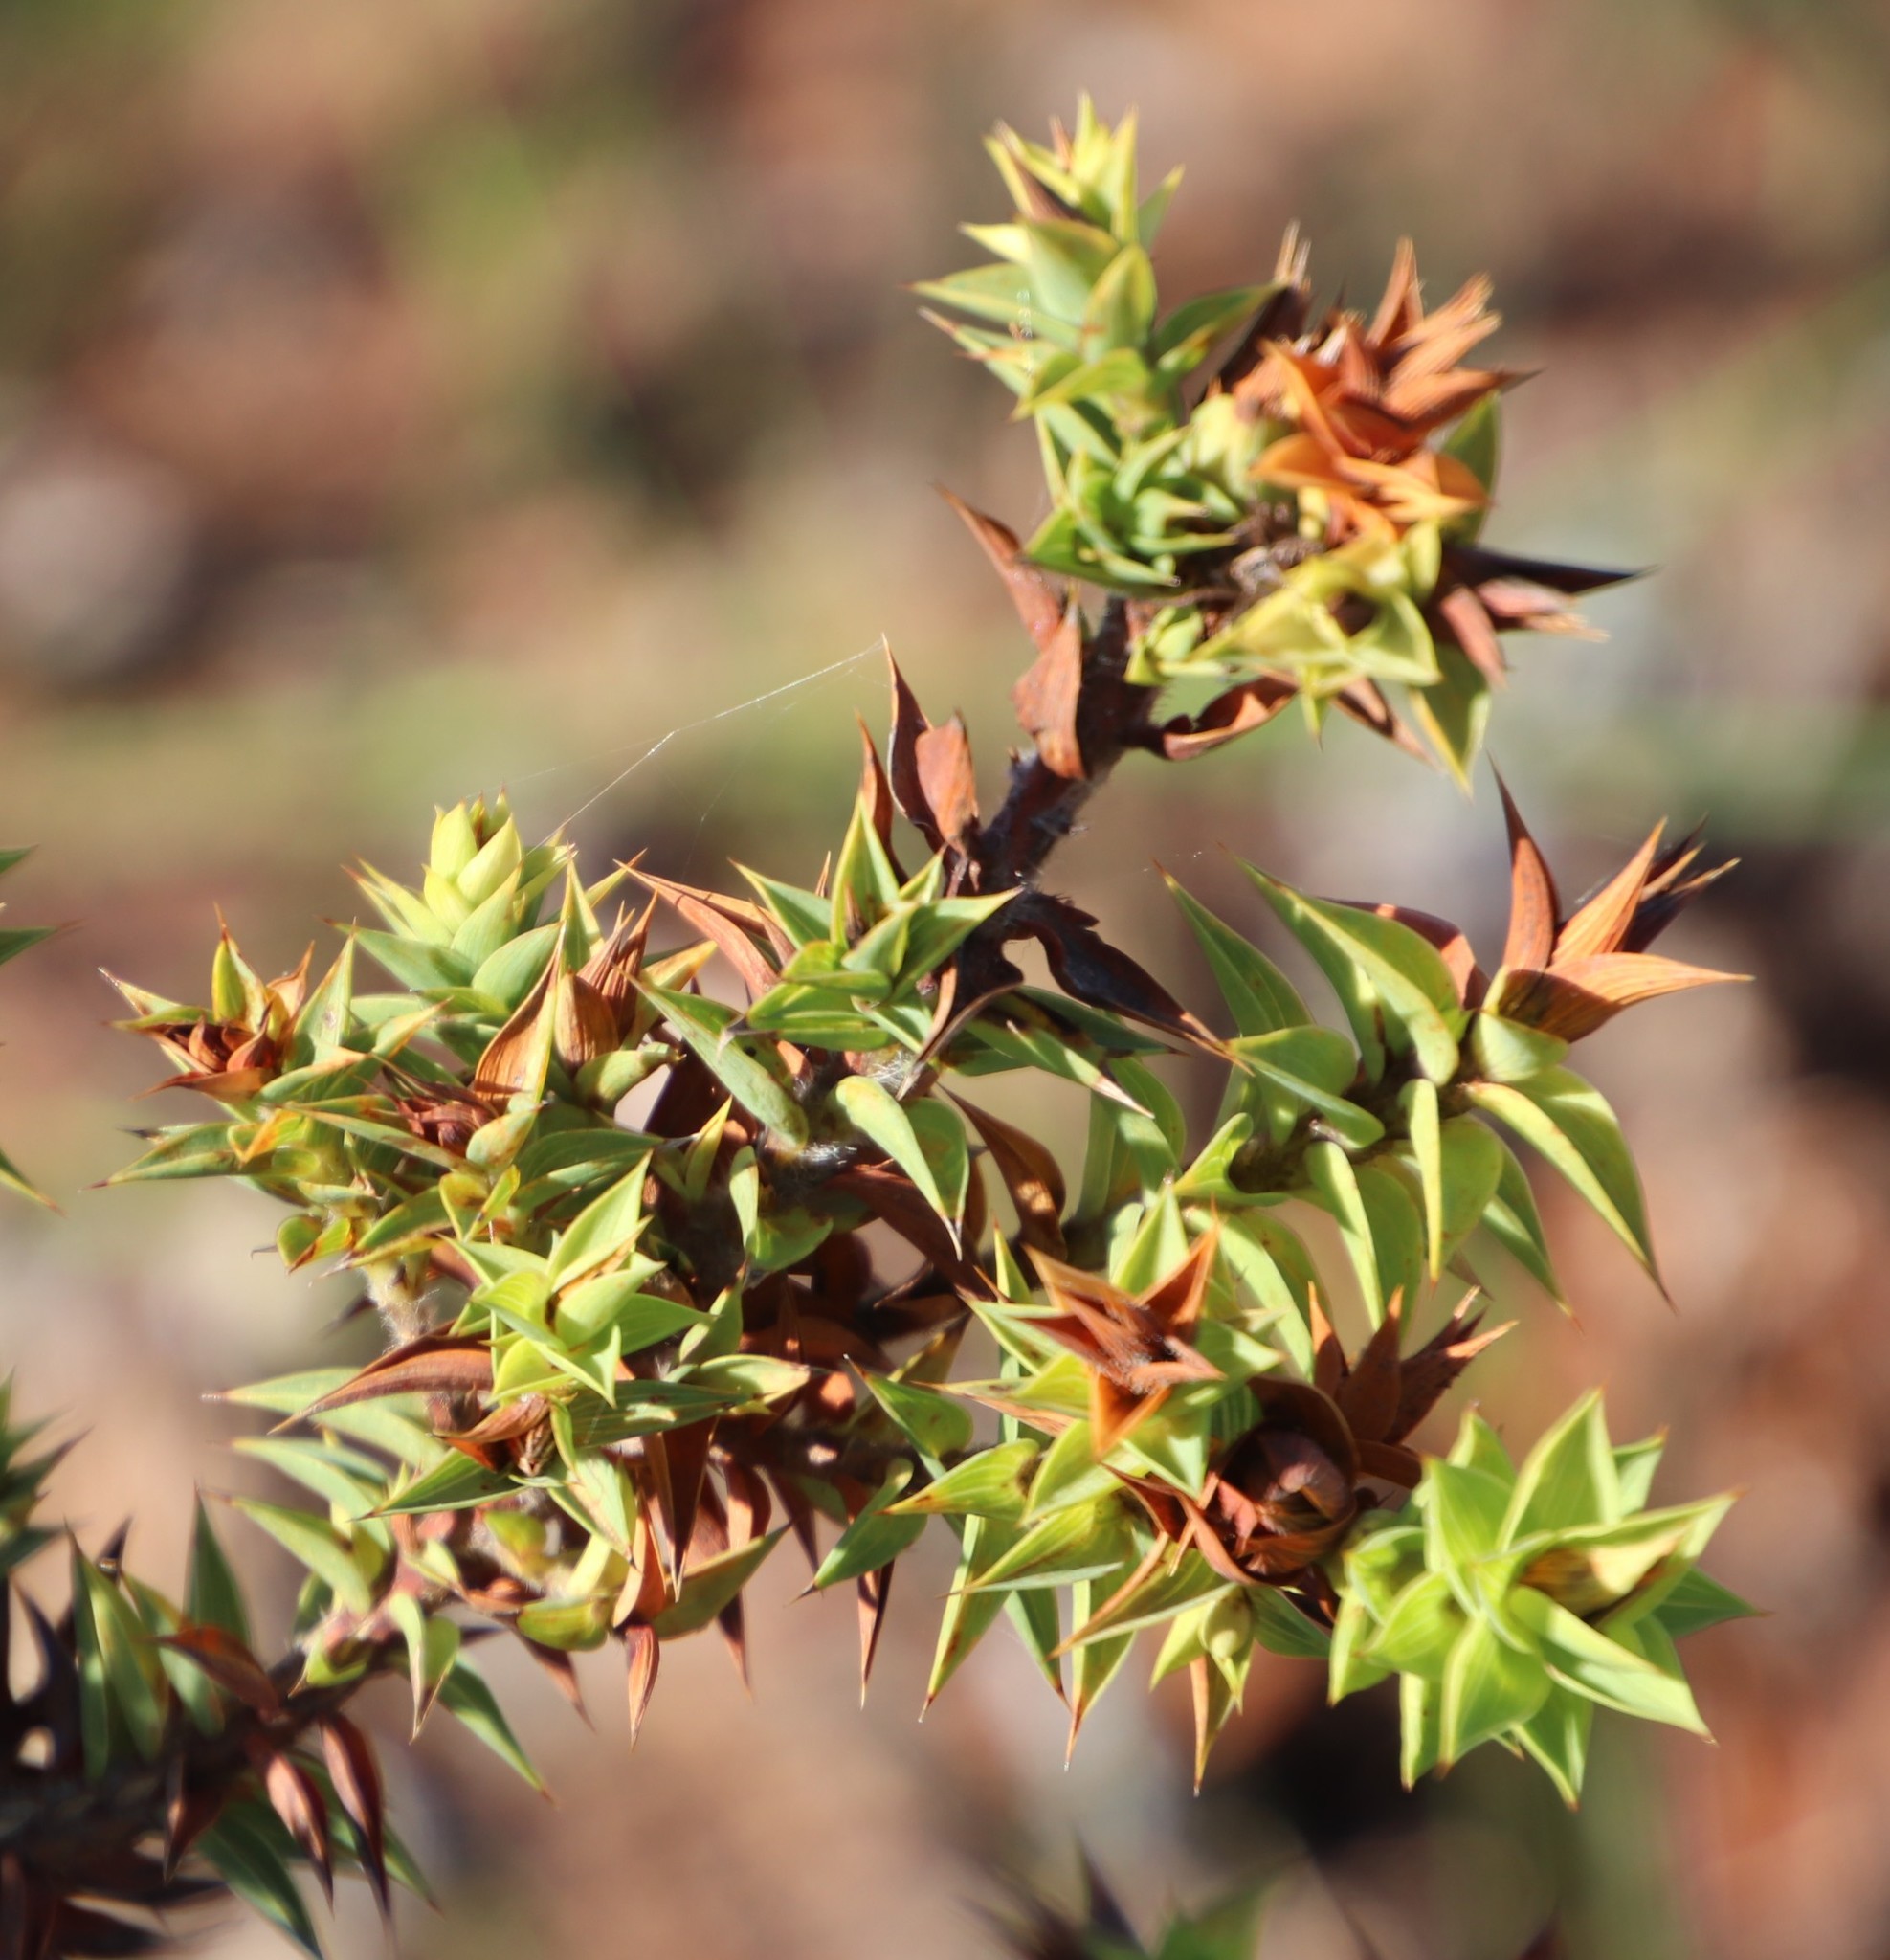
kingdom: Plantae
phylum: Tracheophyta
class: Magnoliopsida
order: Fabales
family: Fabaceae
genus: Aspalathus
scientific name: Aspalathus cordata
